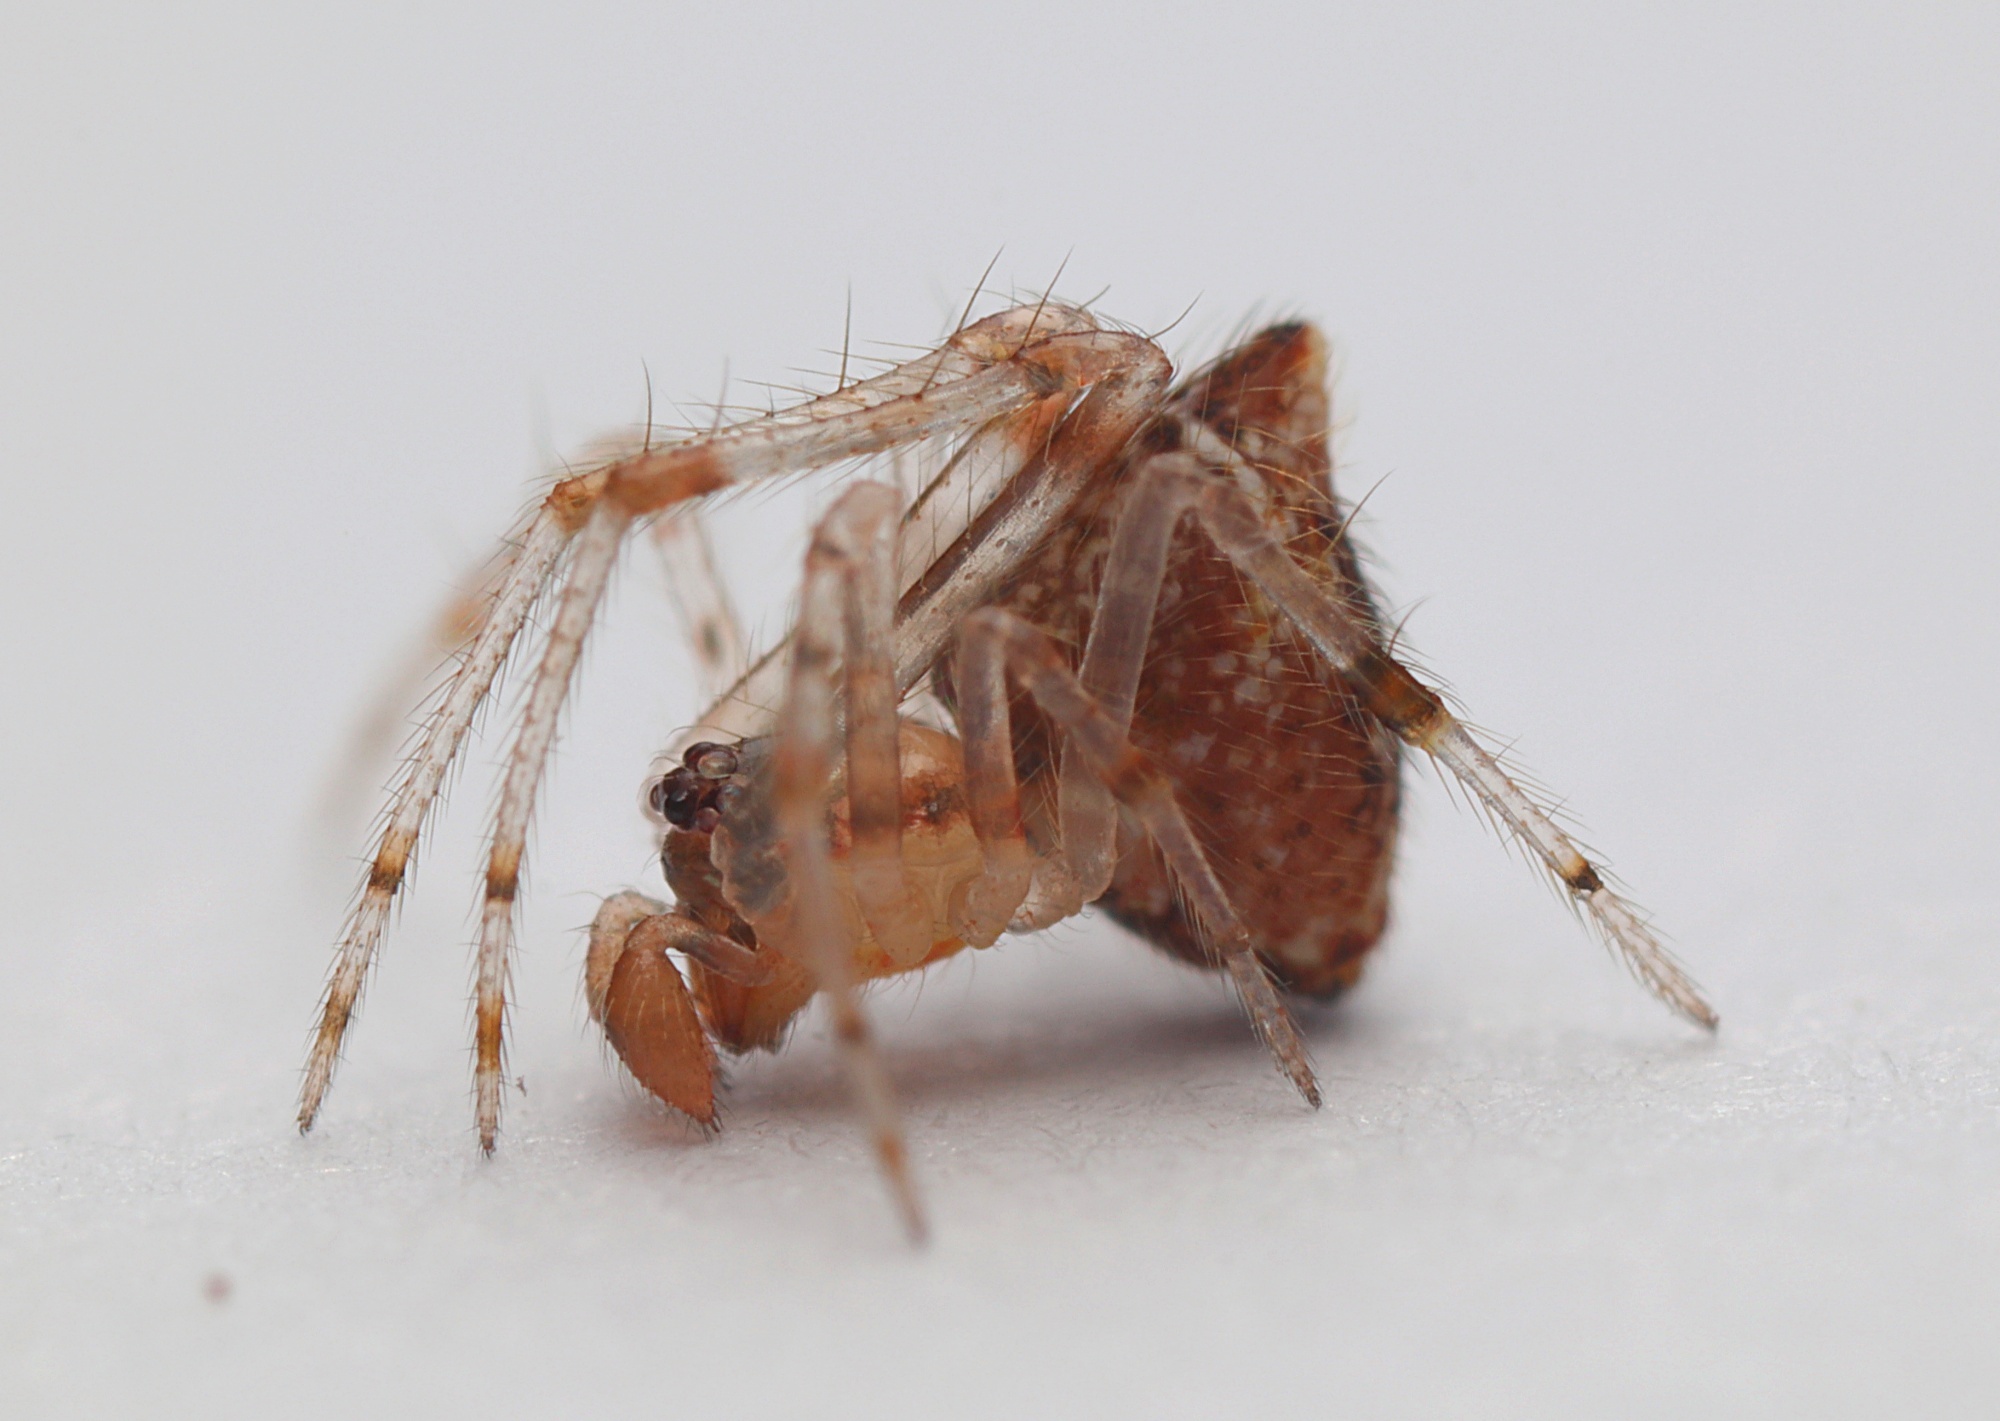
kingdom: Animalia
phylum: Arthropoda
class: Arachnida
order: Araneae
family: Theridiidae
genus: Cryptachaea
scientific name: Cryptachaea meraukensis
